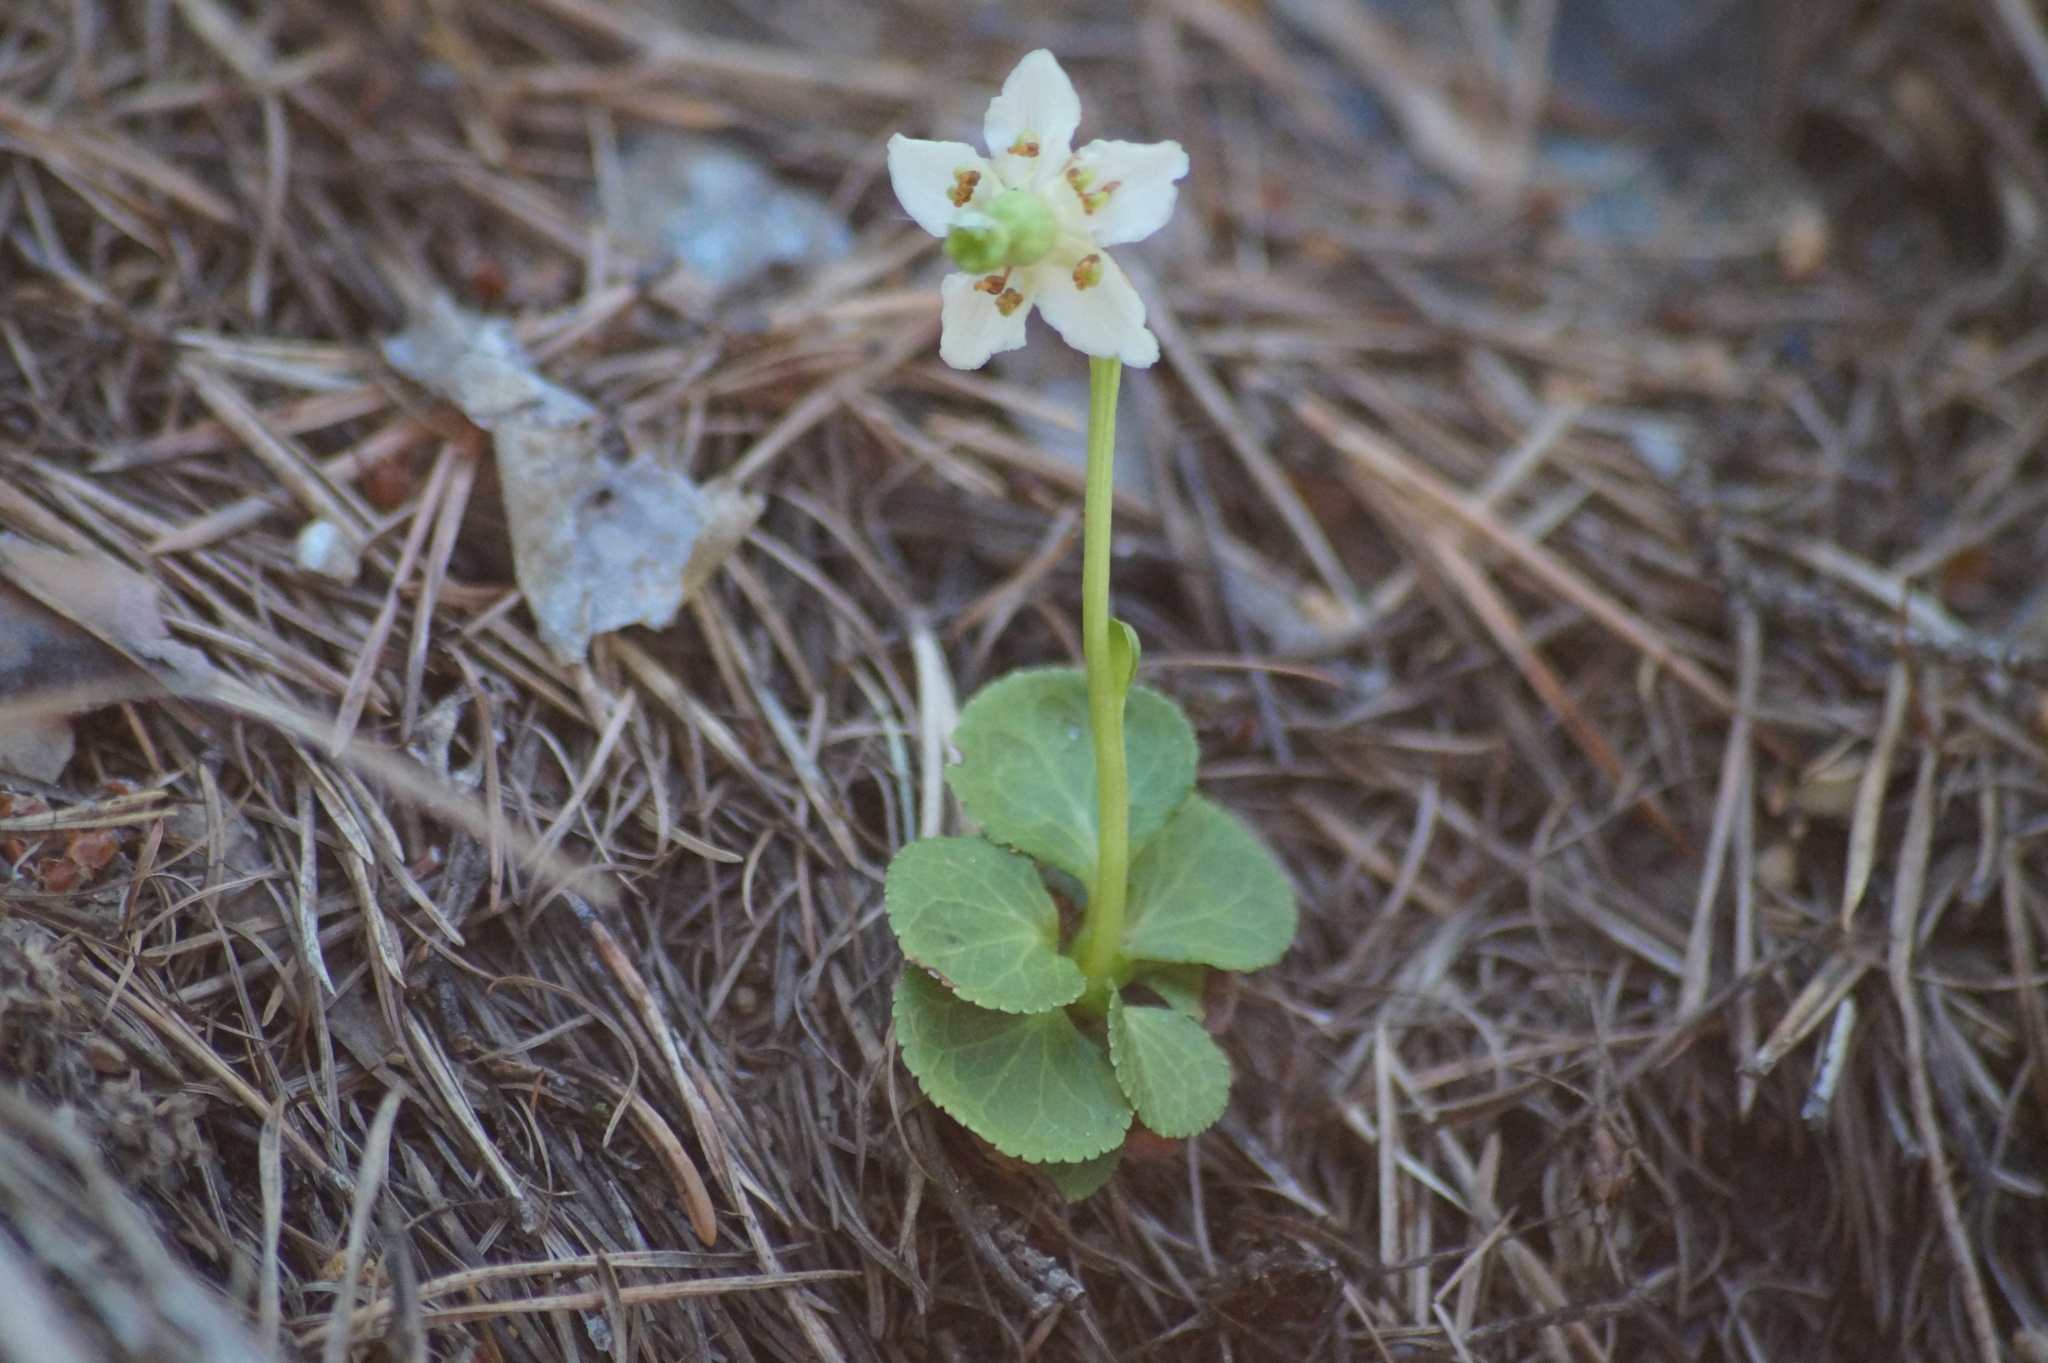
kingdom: Plantae
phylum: Tracheophyta
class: Magnoliopsida
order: Ericales
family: Ericaceae
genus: Moneses
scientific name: Moneses uniflora
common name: One-flowered wintergreen
